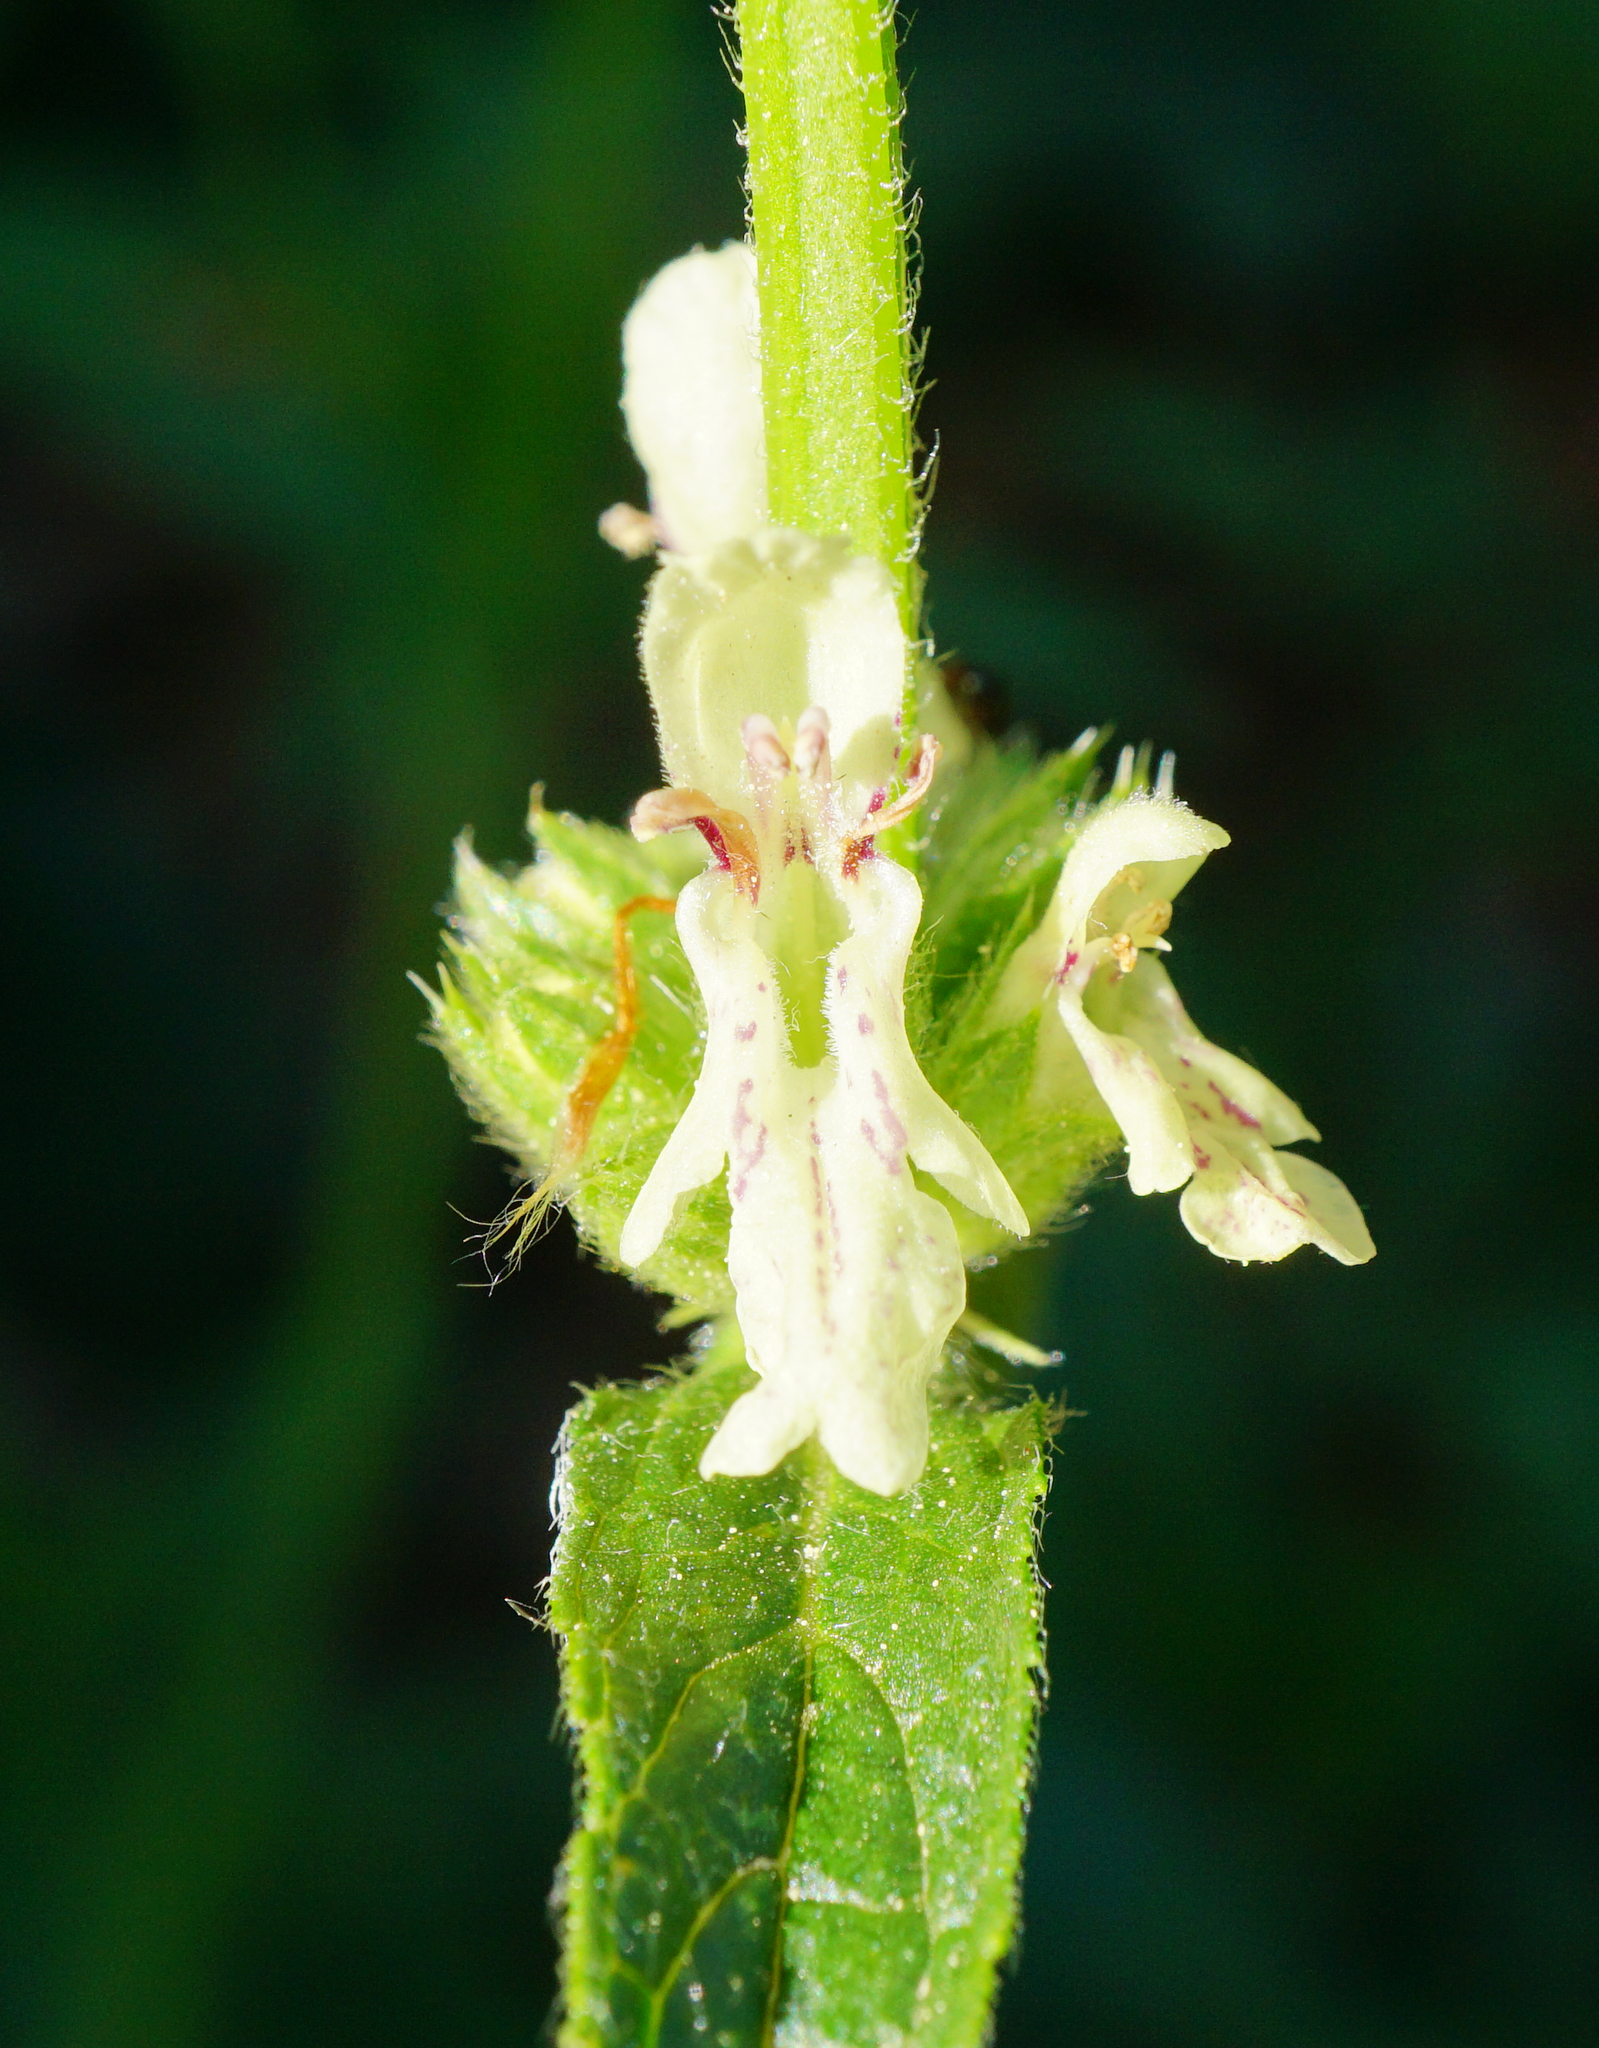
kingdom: Plantae
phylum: Tracheophyta
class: Magnoliopsida
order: Lamiales
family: Lamiaceae
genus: Stachys
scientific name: Stachys recta
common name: Perennial yellow-woundwort
